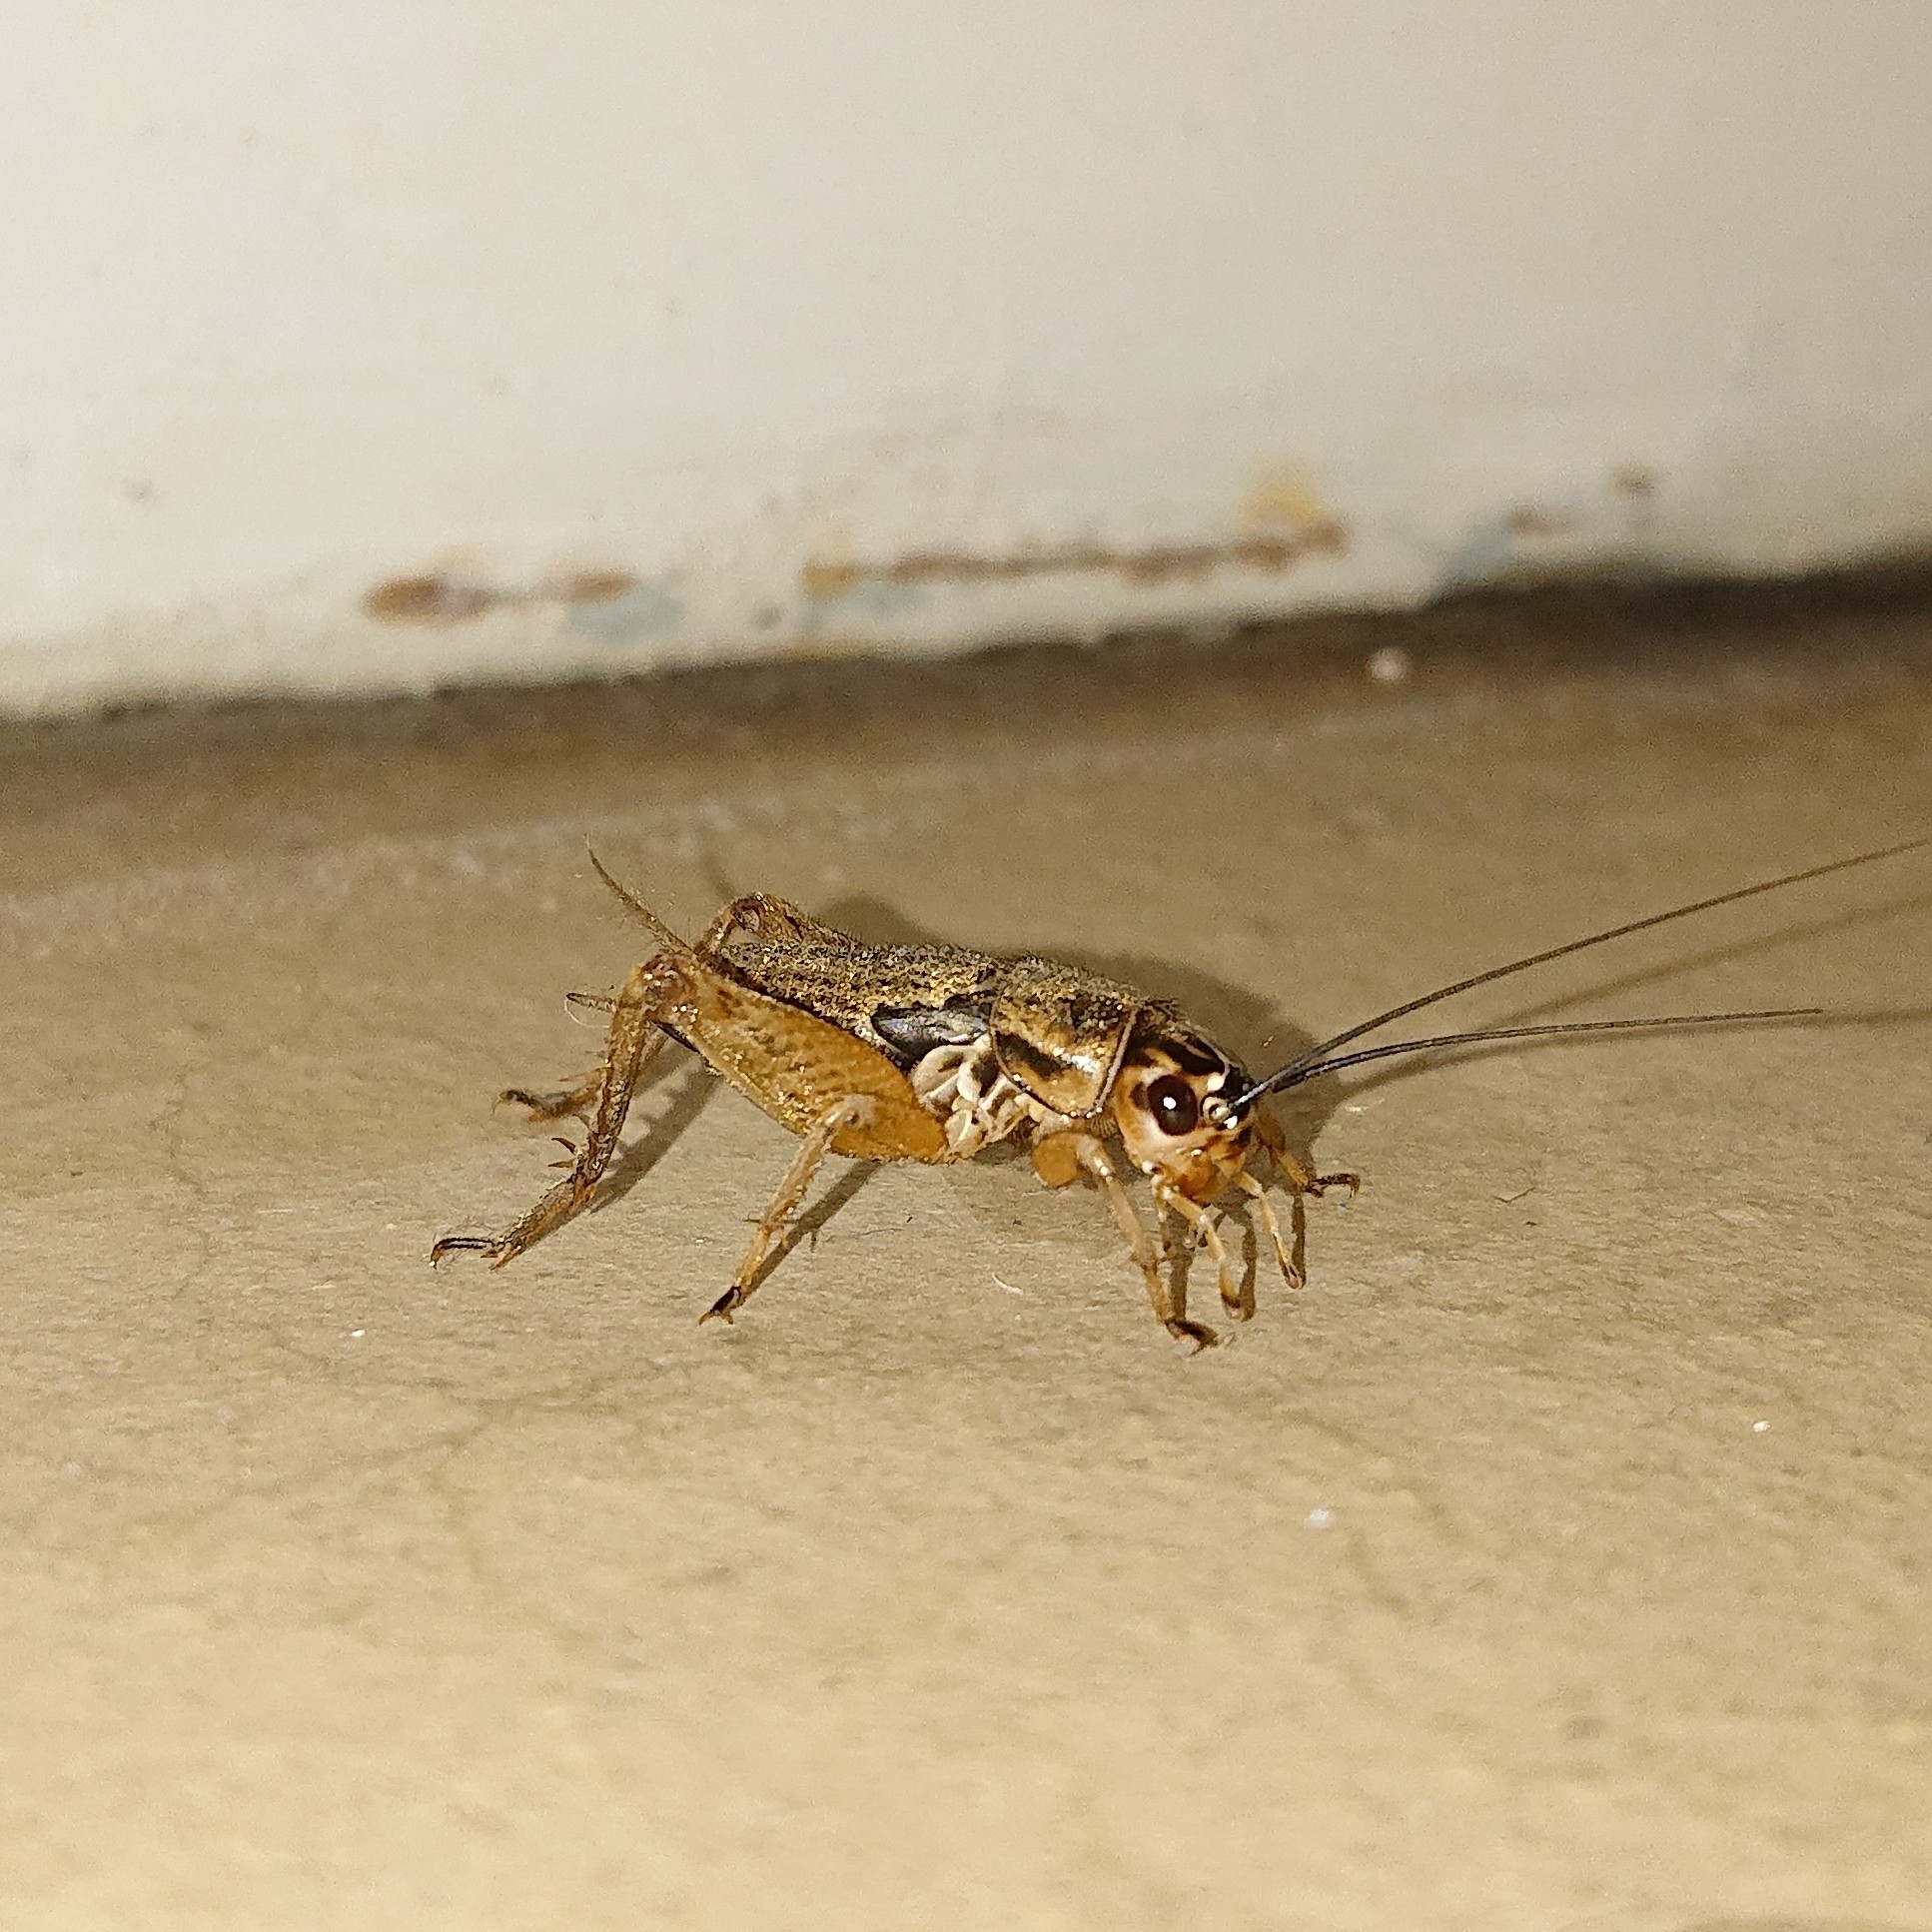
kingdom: Animalia
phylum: Arthropoda
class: Insecta
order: Orthoptera
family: Gryllidae
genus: Acheta
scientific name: Acheta domesticus
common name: House cricket
